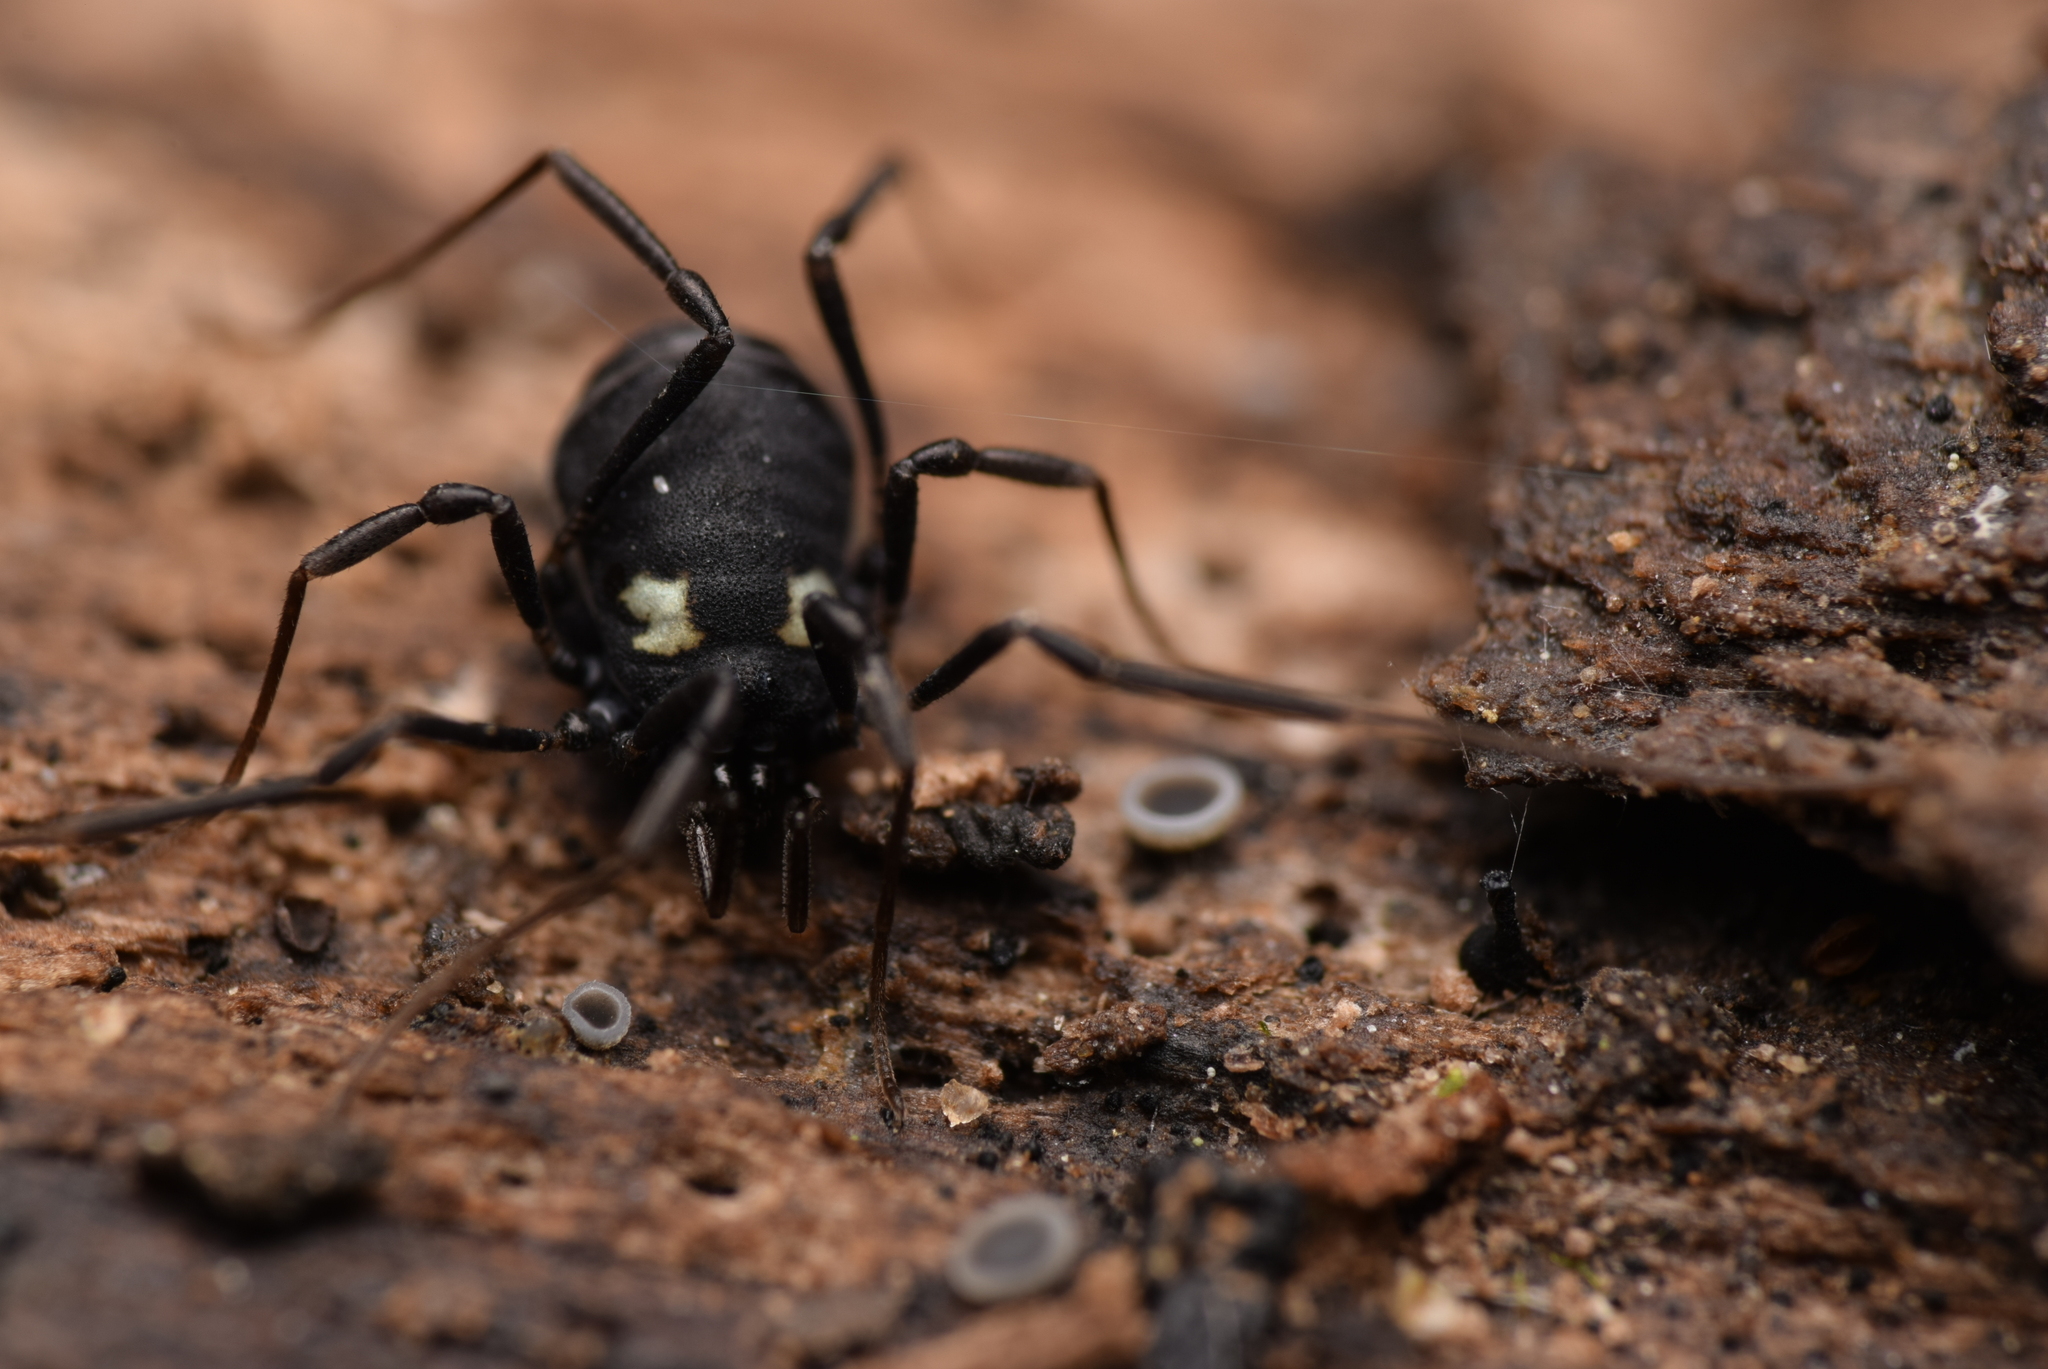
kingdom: Animalia
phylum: Arthropoda
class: Arachnida
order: Opiliones
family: Nemastomatidae
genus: Nemastoma
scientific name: Nemastoma bimaculatum
